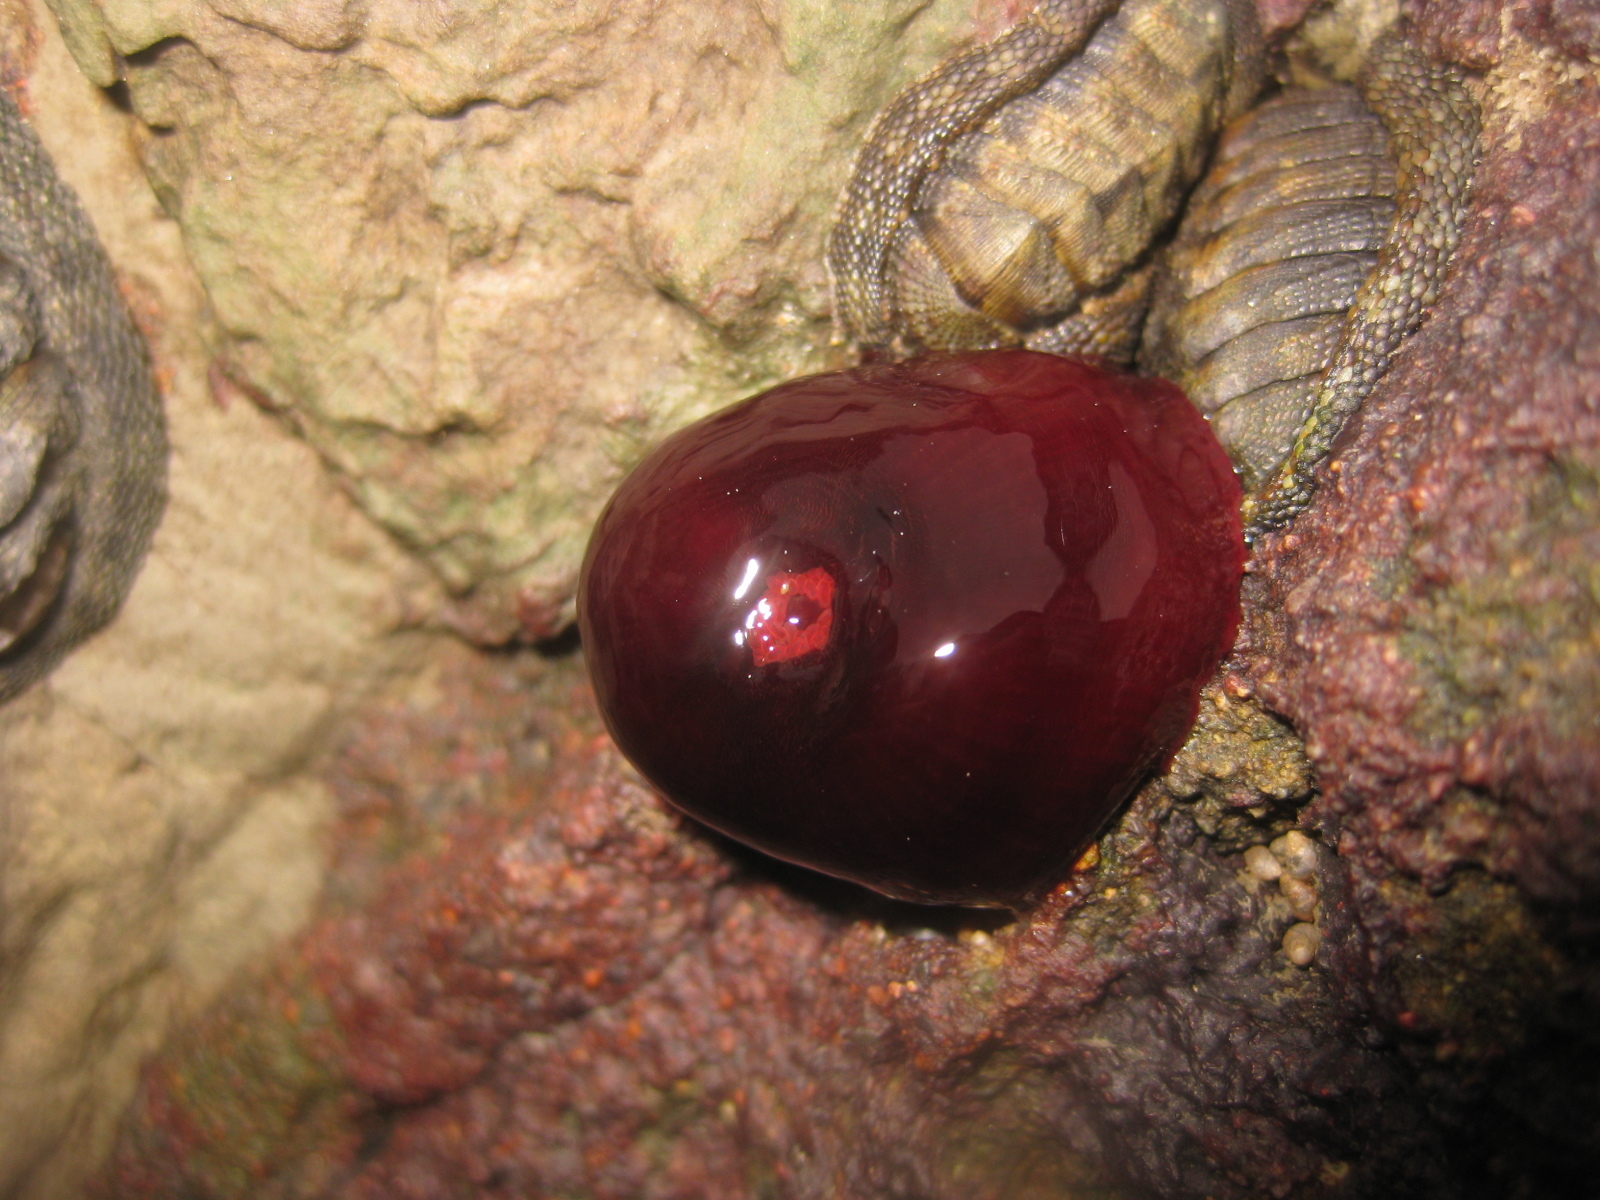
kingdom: Animalia
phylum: Cnidaria
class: Anthozoa
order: Actiniaria
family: Actiniidae
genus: Actinia
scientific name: Actinia tenebrosa
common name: Waratah anemone
